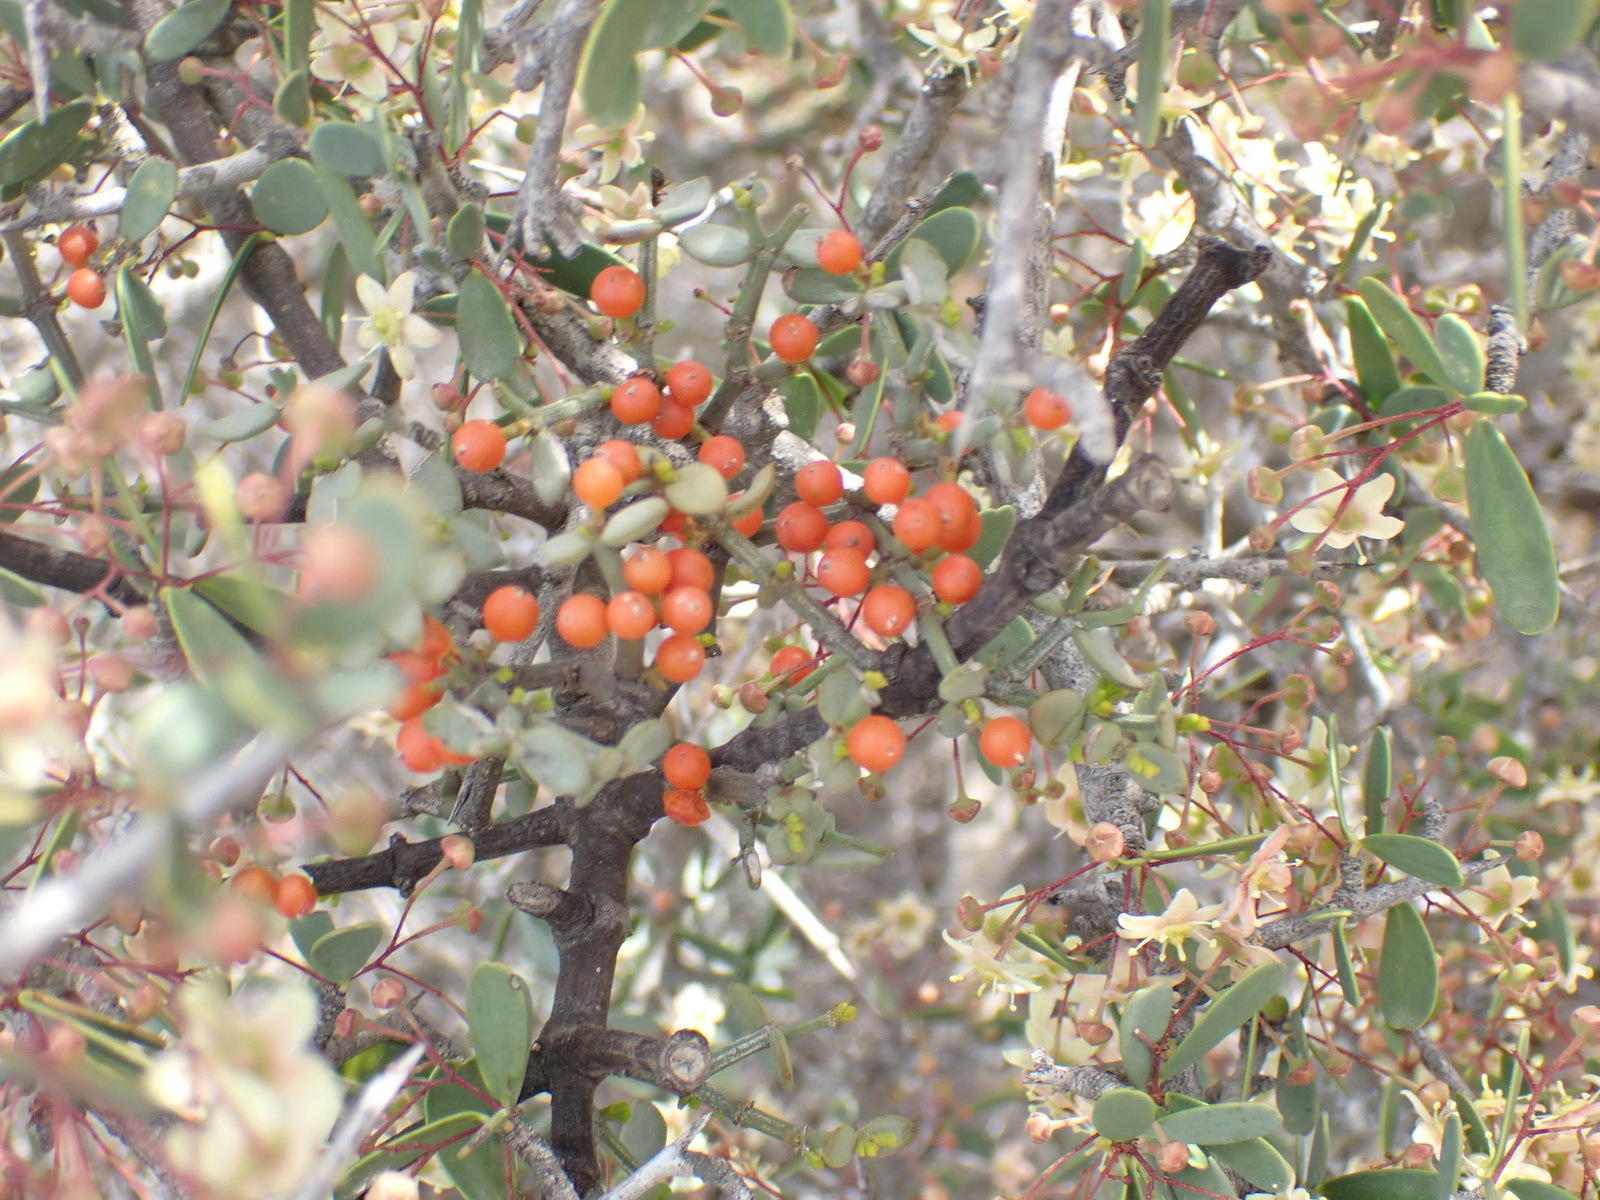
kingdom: Plantae
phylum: Tracheophyta
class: Magnoliopsida
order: Santalales
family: Viscaceae
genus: Viscum
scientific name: Viscum rotundifolium
